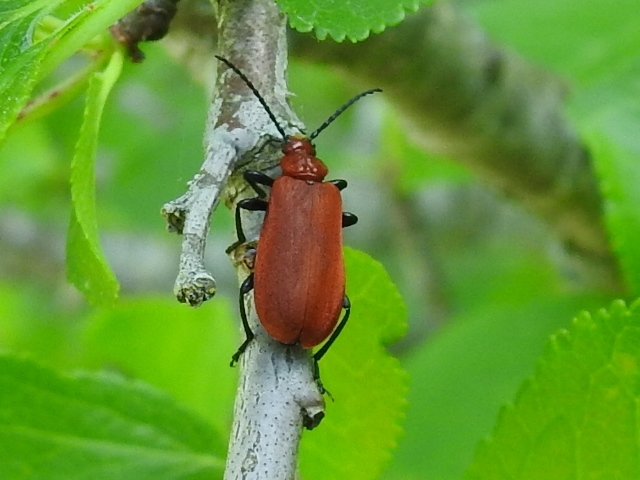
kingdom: Animalia
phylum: Arthropoda
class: Insecta
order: Coleoptera
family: Pyrochroidae
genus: Pyrochroa
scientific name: Pyrochroa serraticornis
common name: Red-headed cardinal beetle
